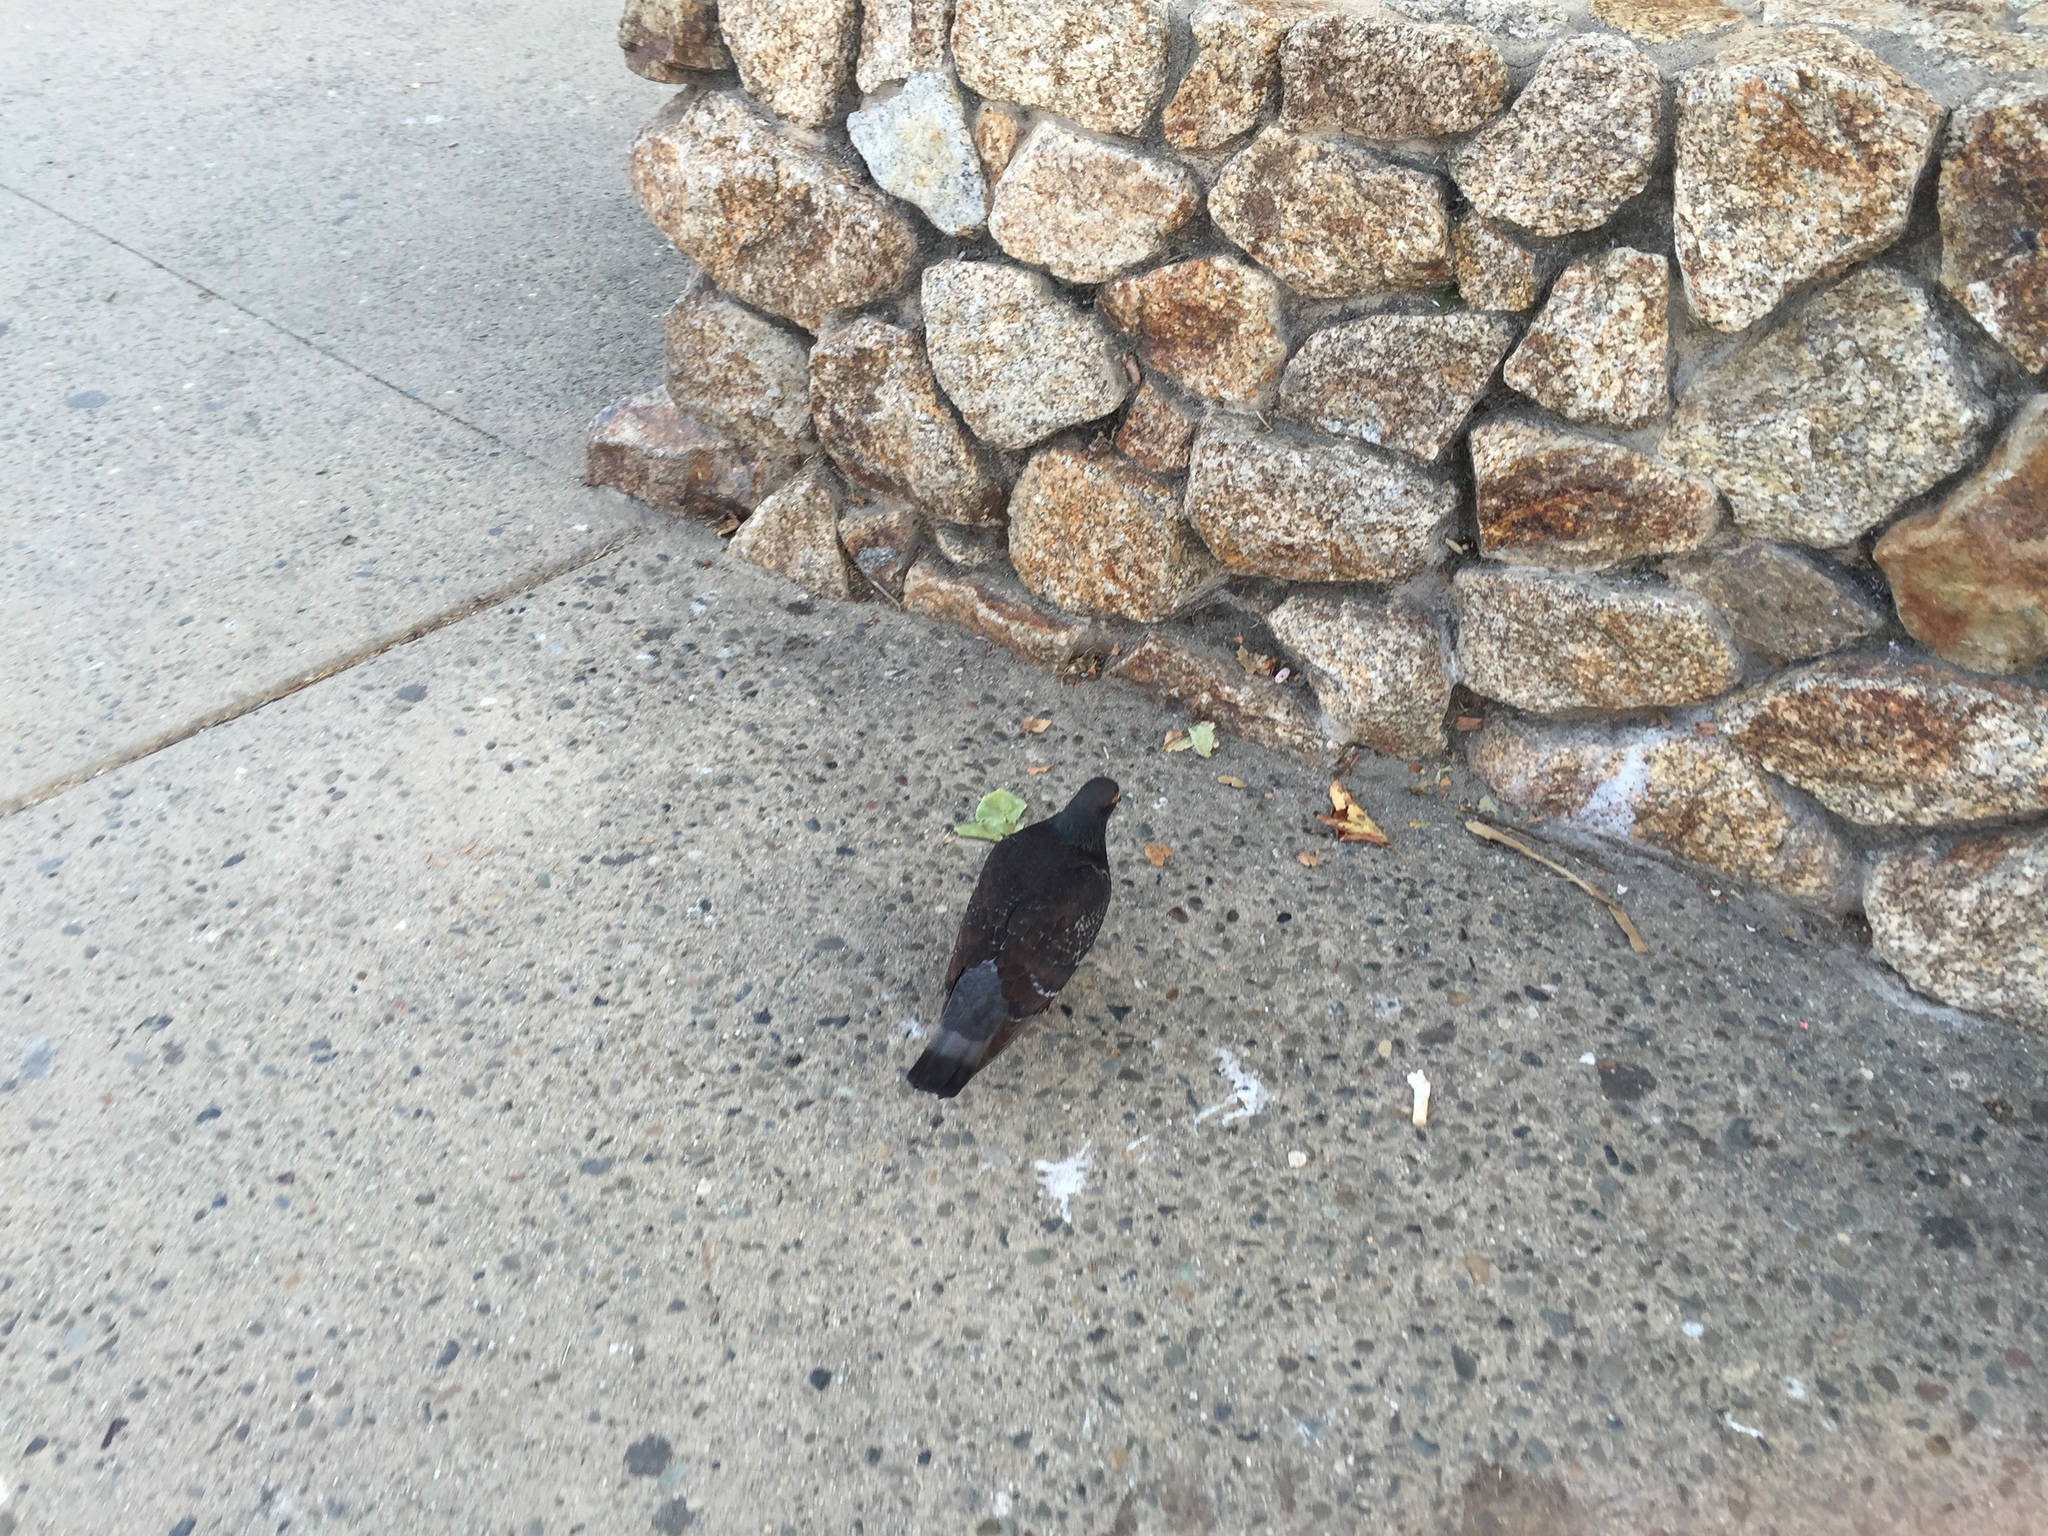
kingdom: Animalia
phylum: Chordata
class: Aves
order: Columbiformes
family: Columbidae
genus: Columba
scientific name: Columba livia
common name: Rock pigeon
